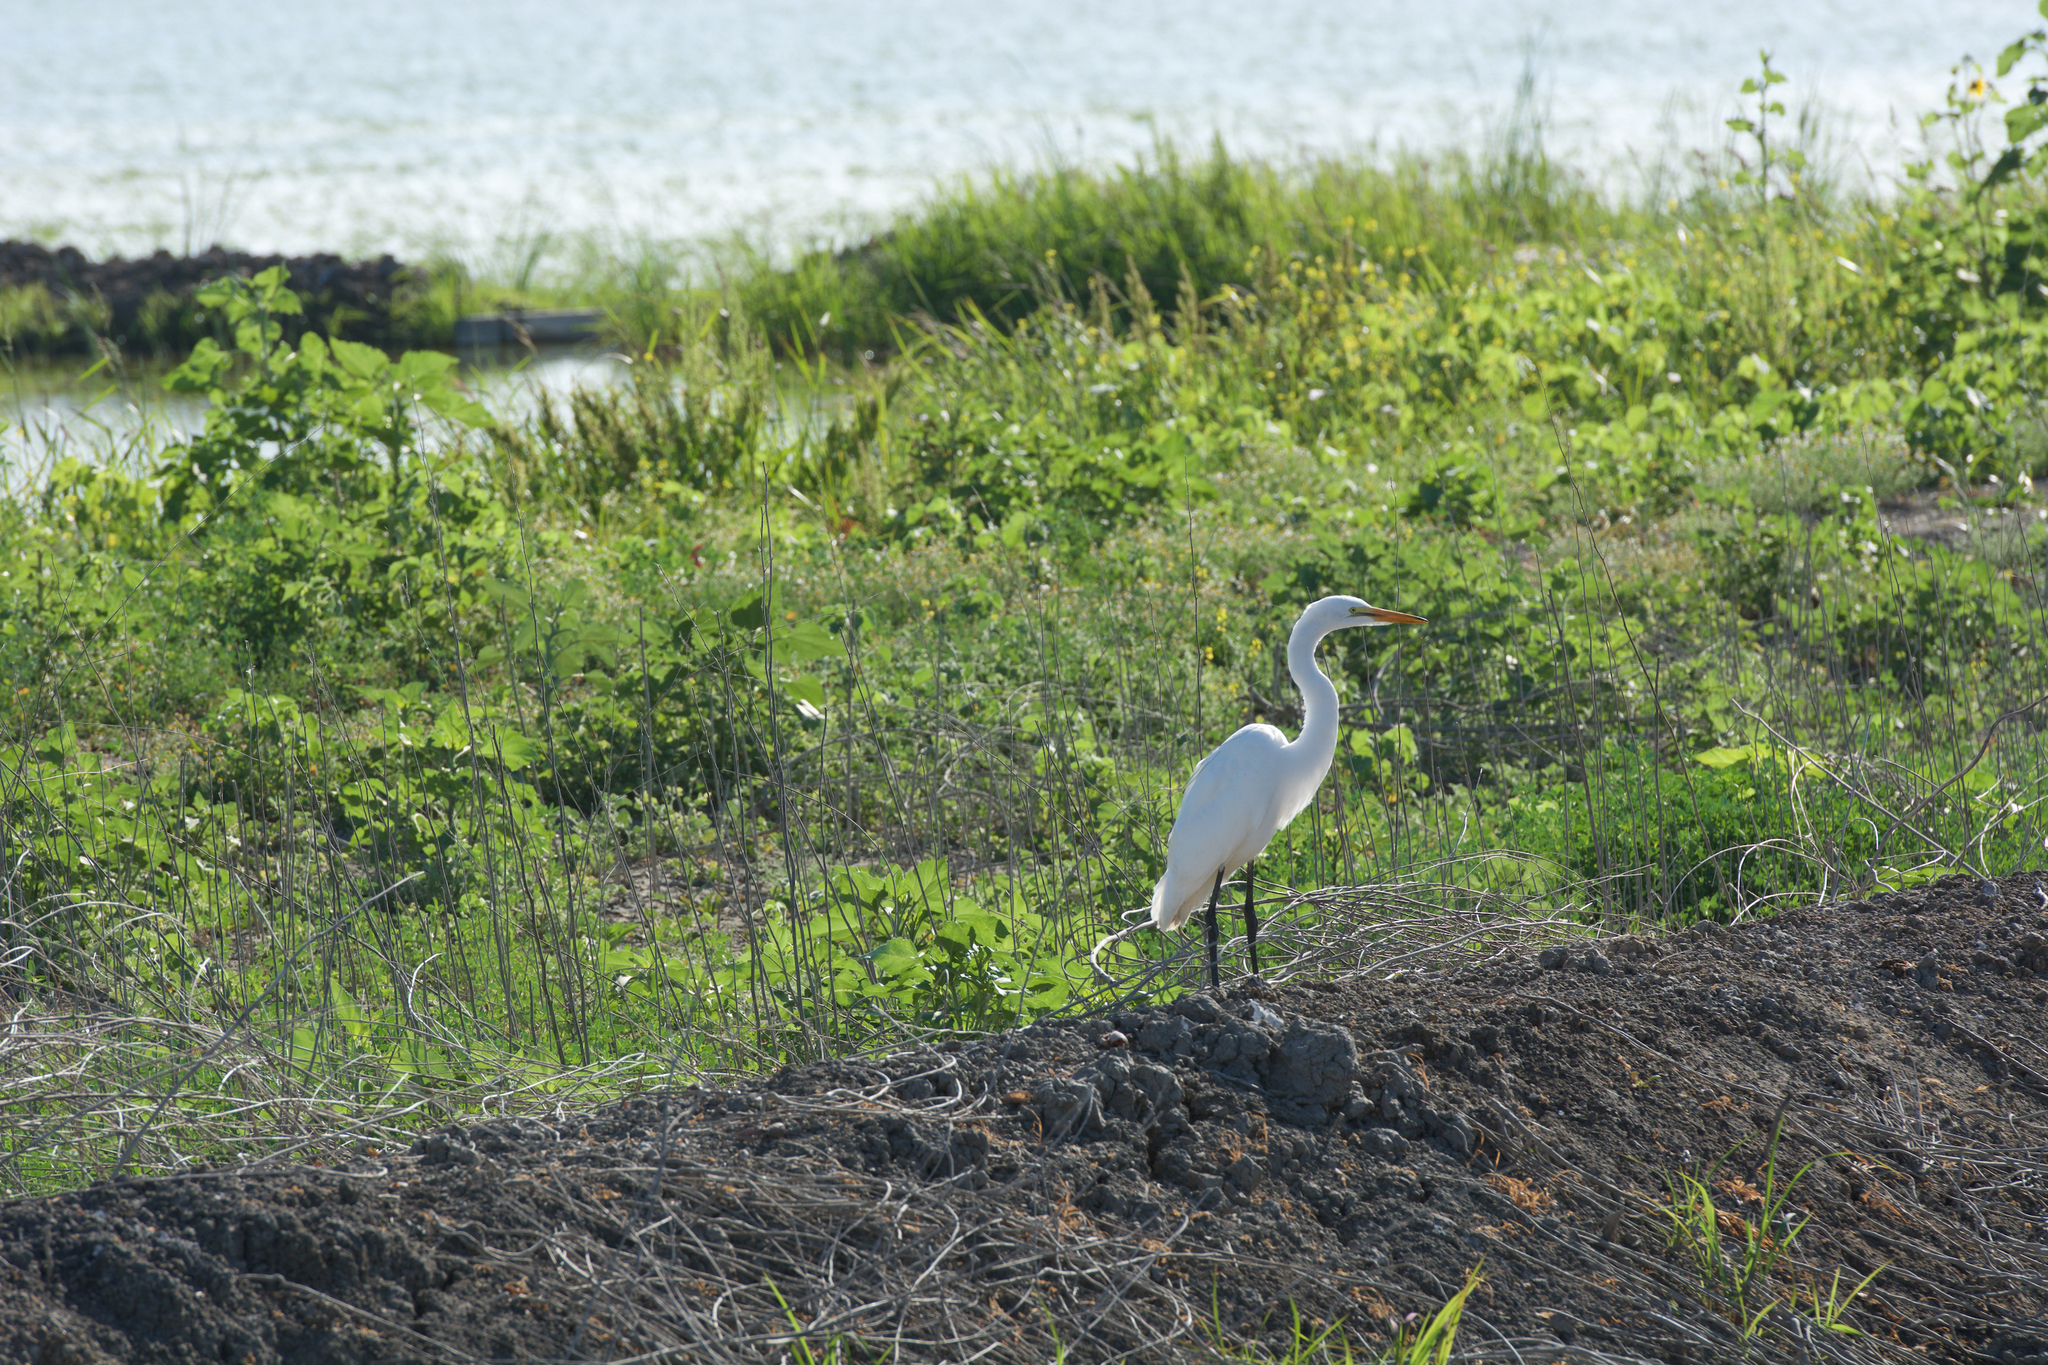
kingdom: Animalia
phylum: Chordata
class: Aves
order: Pelecaniformes
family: Ardeidae
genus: Ardea
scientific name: Ardea alba
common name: Great egret
